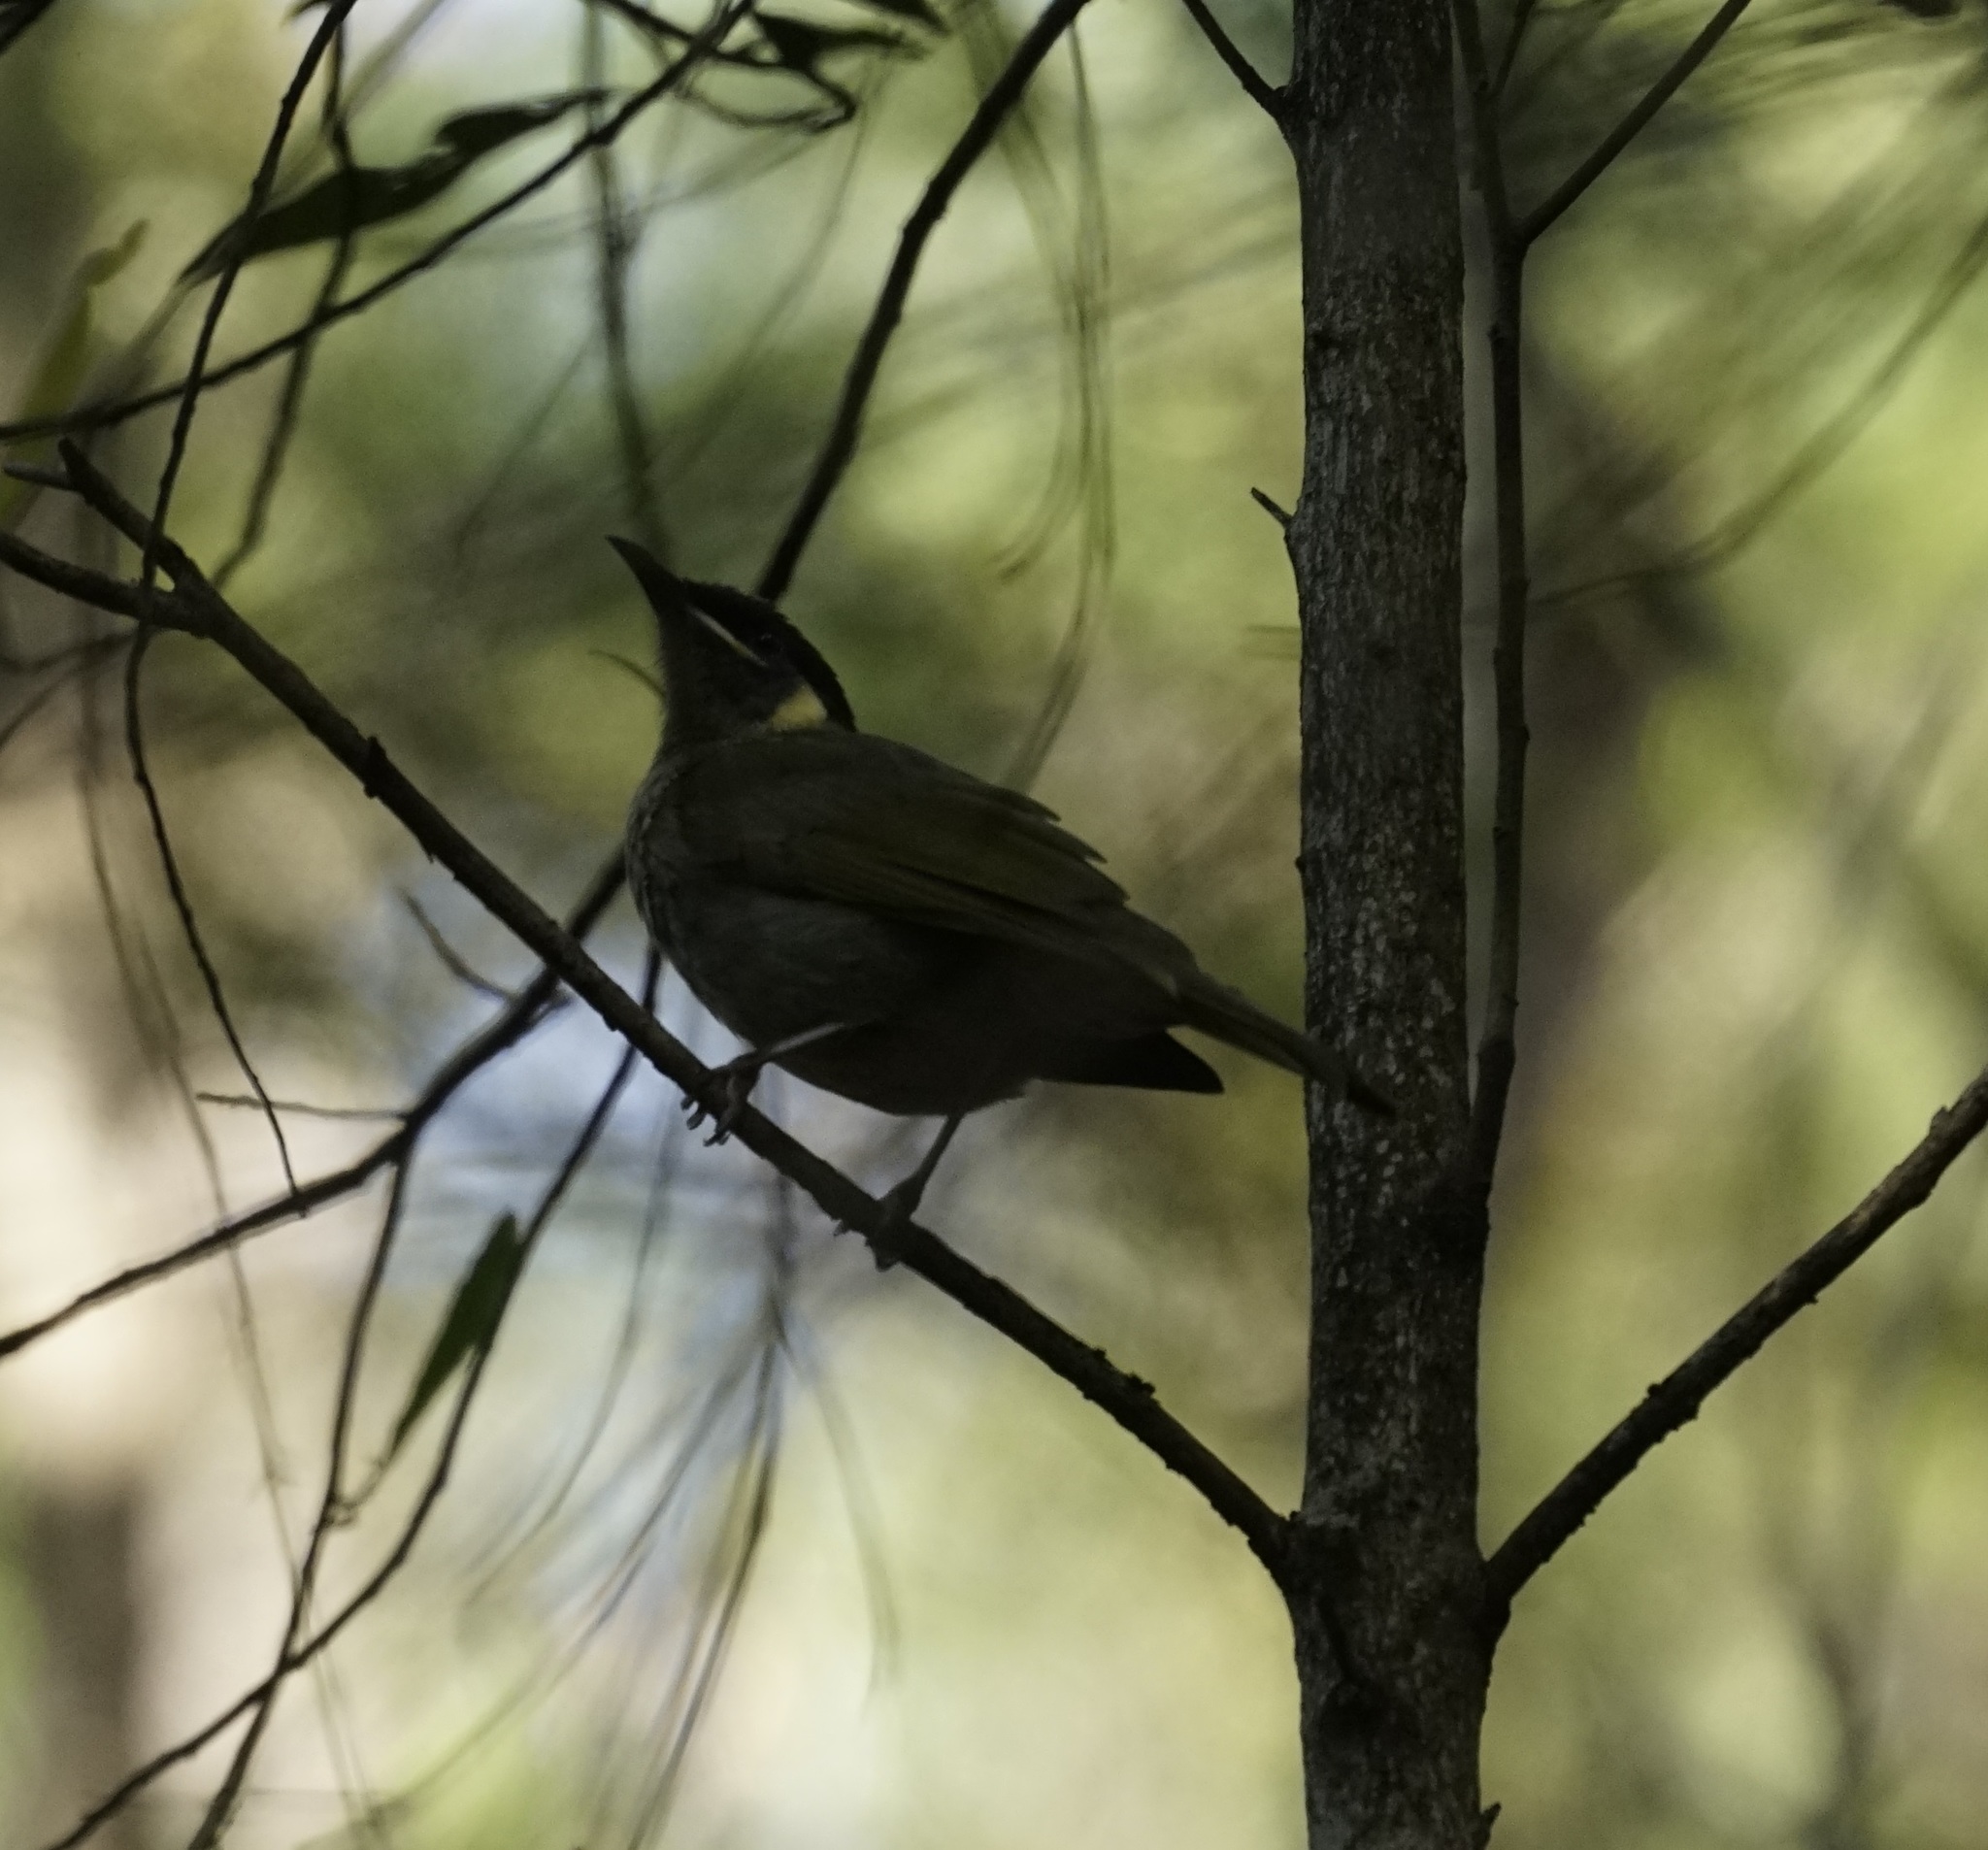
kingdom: Animalia
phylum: Chordata
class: Aves
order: Passeriformes
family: Meliphagidae
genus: Meliphaga
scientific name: Meliphaga lewinii
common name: Lewin's honeyeater
